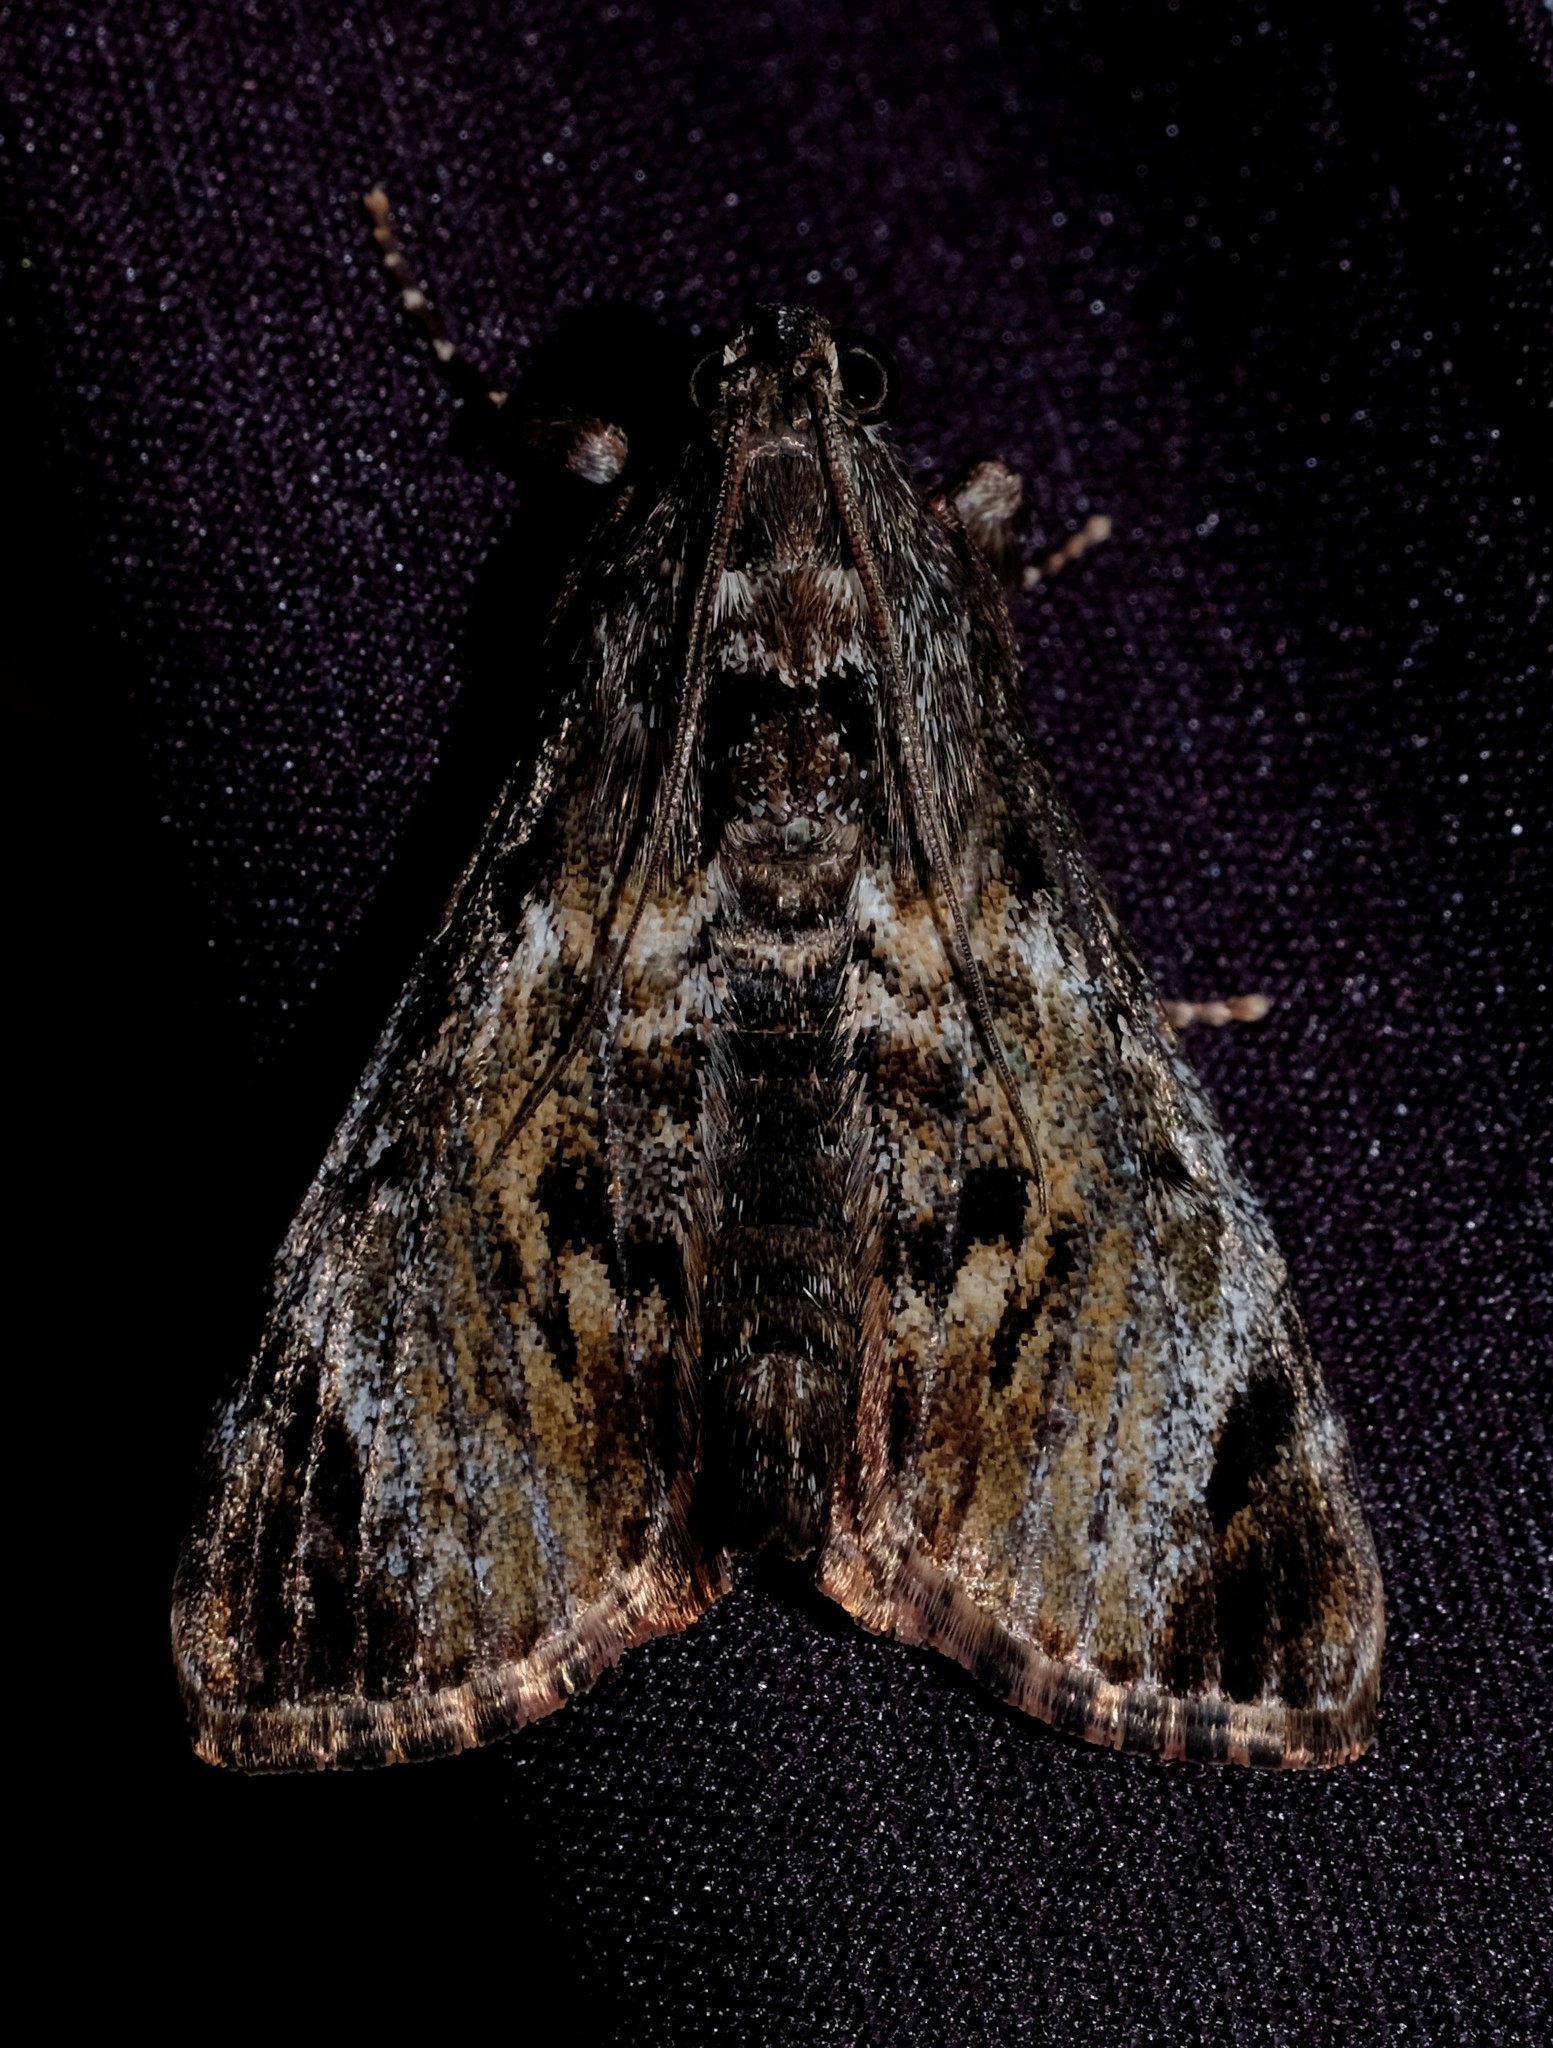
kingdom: Animalia
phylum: Arthropoda
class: Insecta
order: Lepidoptera
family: Pyralidae
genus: Salma
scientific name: Salma pyrastis
